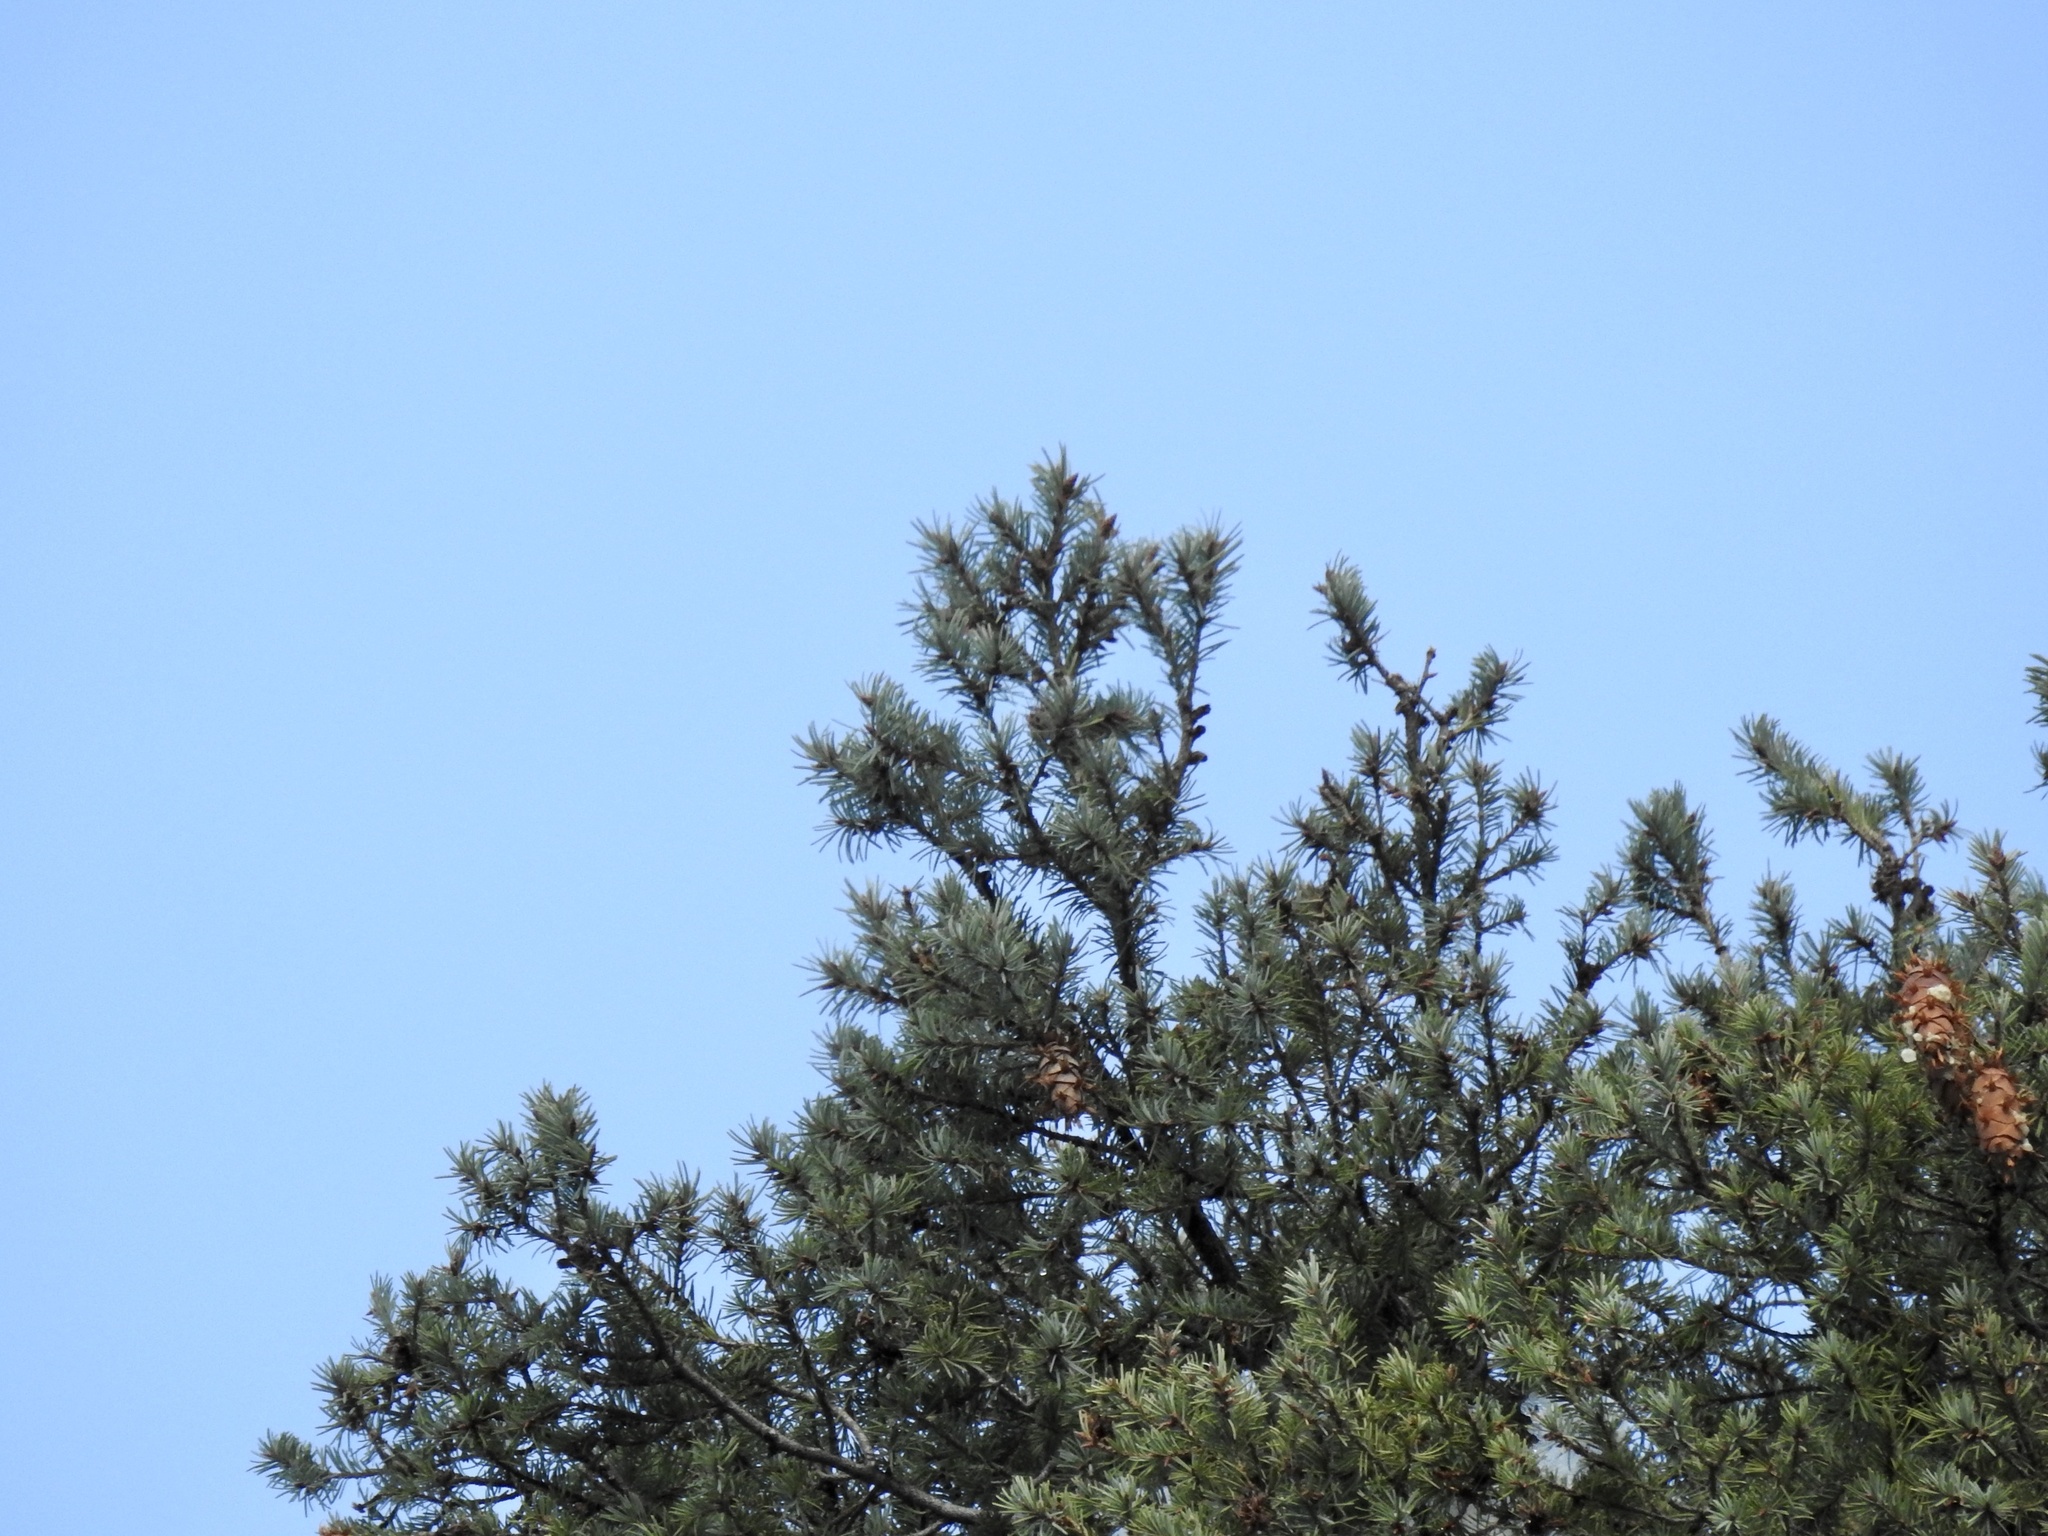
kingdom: Plantae
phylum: Tracheophyta
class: Pinopsida
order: Pinales
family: Pinaceae
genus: Pseudotsuga
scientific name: Pseudotsuga menziesii
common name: Douglas fir
